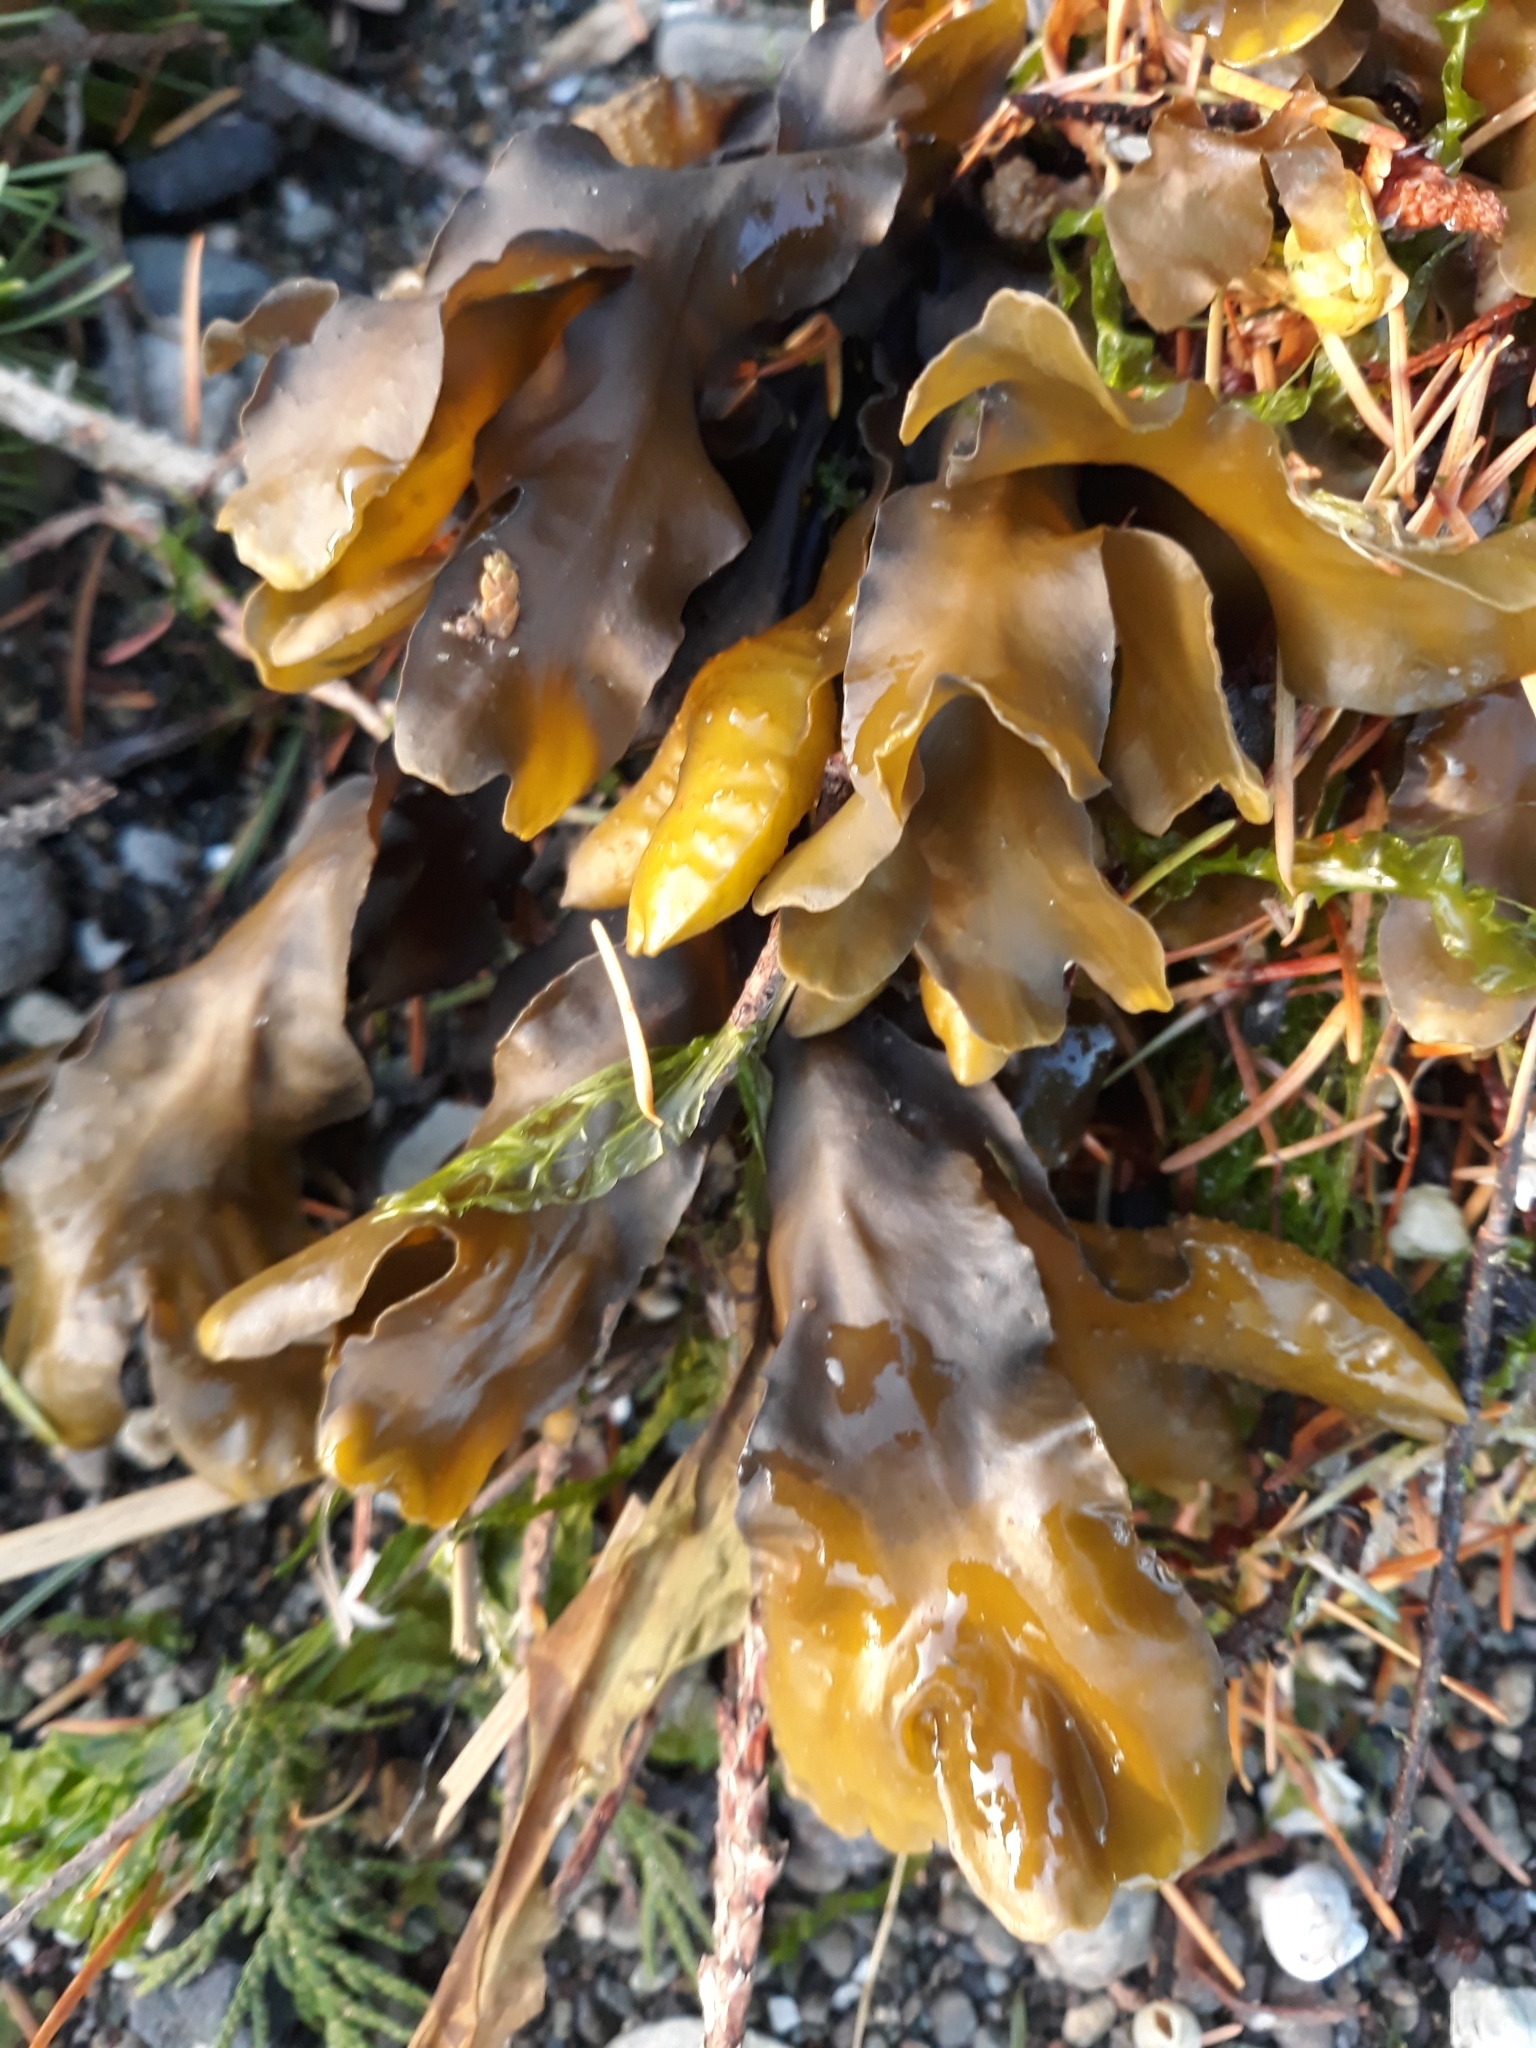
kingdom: Chromista
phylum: Ochrophyta
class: Phaeophyceae
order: Fucales
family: Fucaceae
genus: Fucus
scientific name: Fucus distichus
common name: Rockweed
